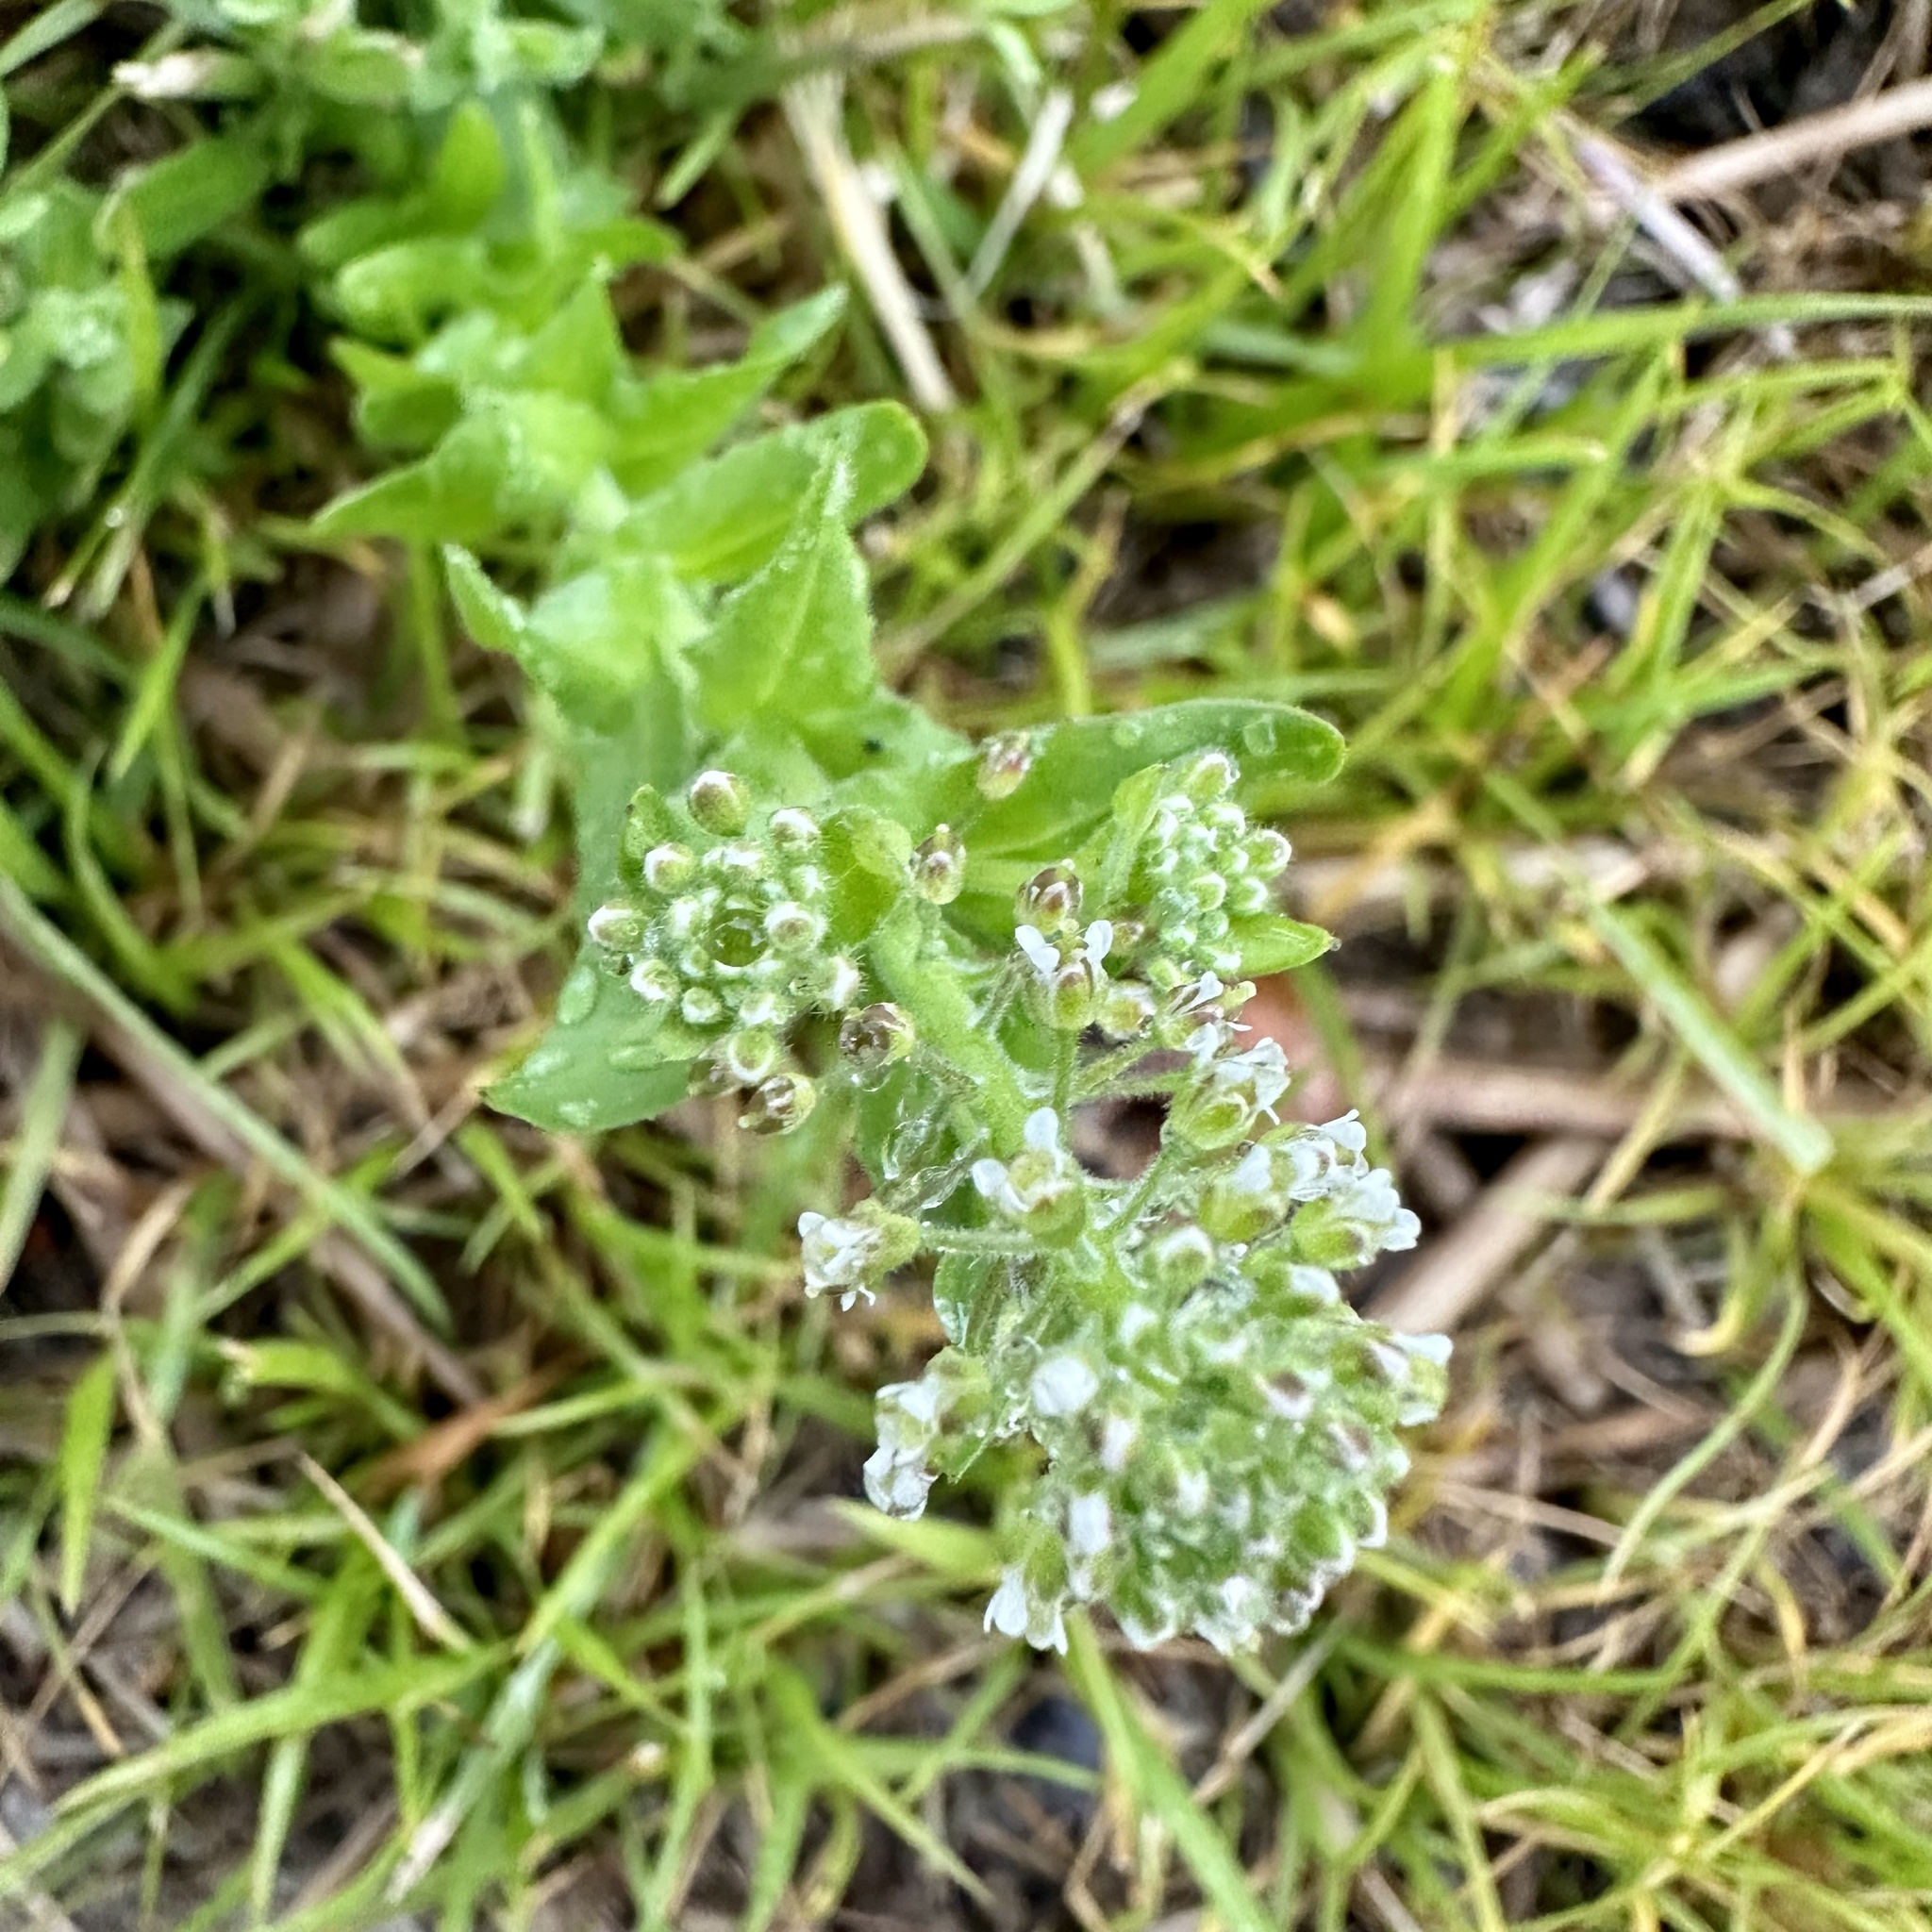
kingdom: Plantae
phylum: Tracheophyta
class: Magnoliopsida
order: Brassicales
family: Brassicaceae
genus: Lepidium
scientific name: Lepidium campestre
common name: Field pepperwort
